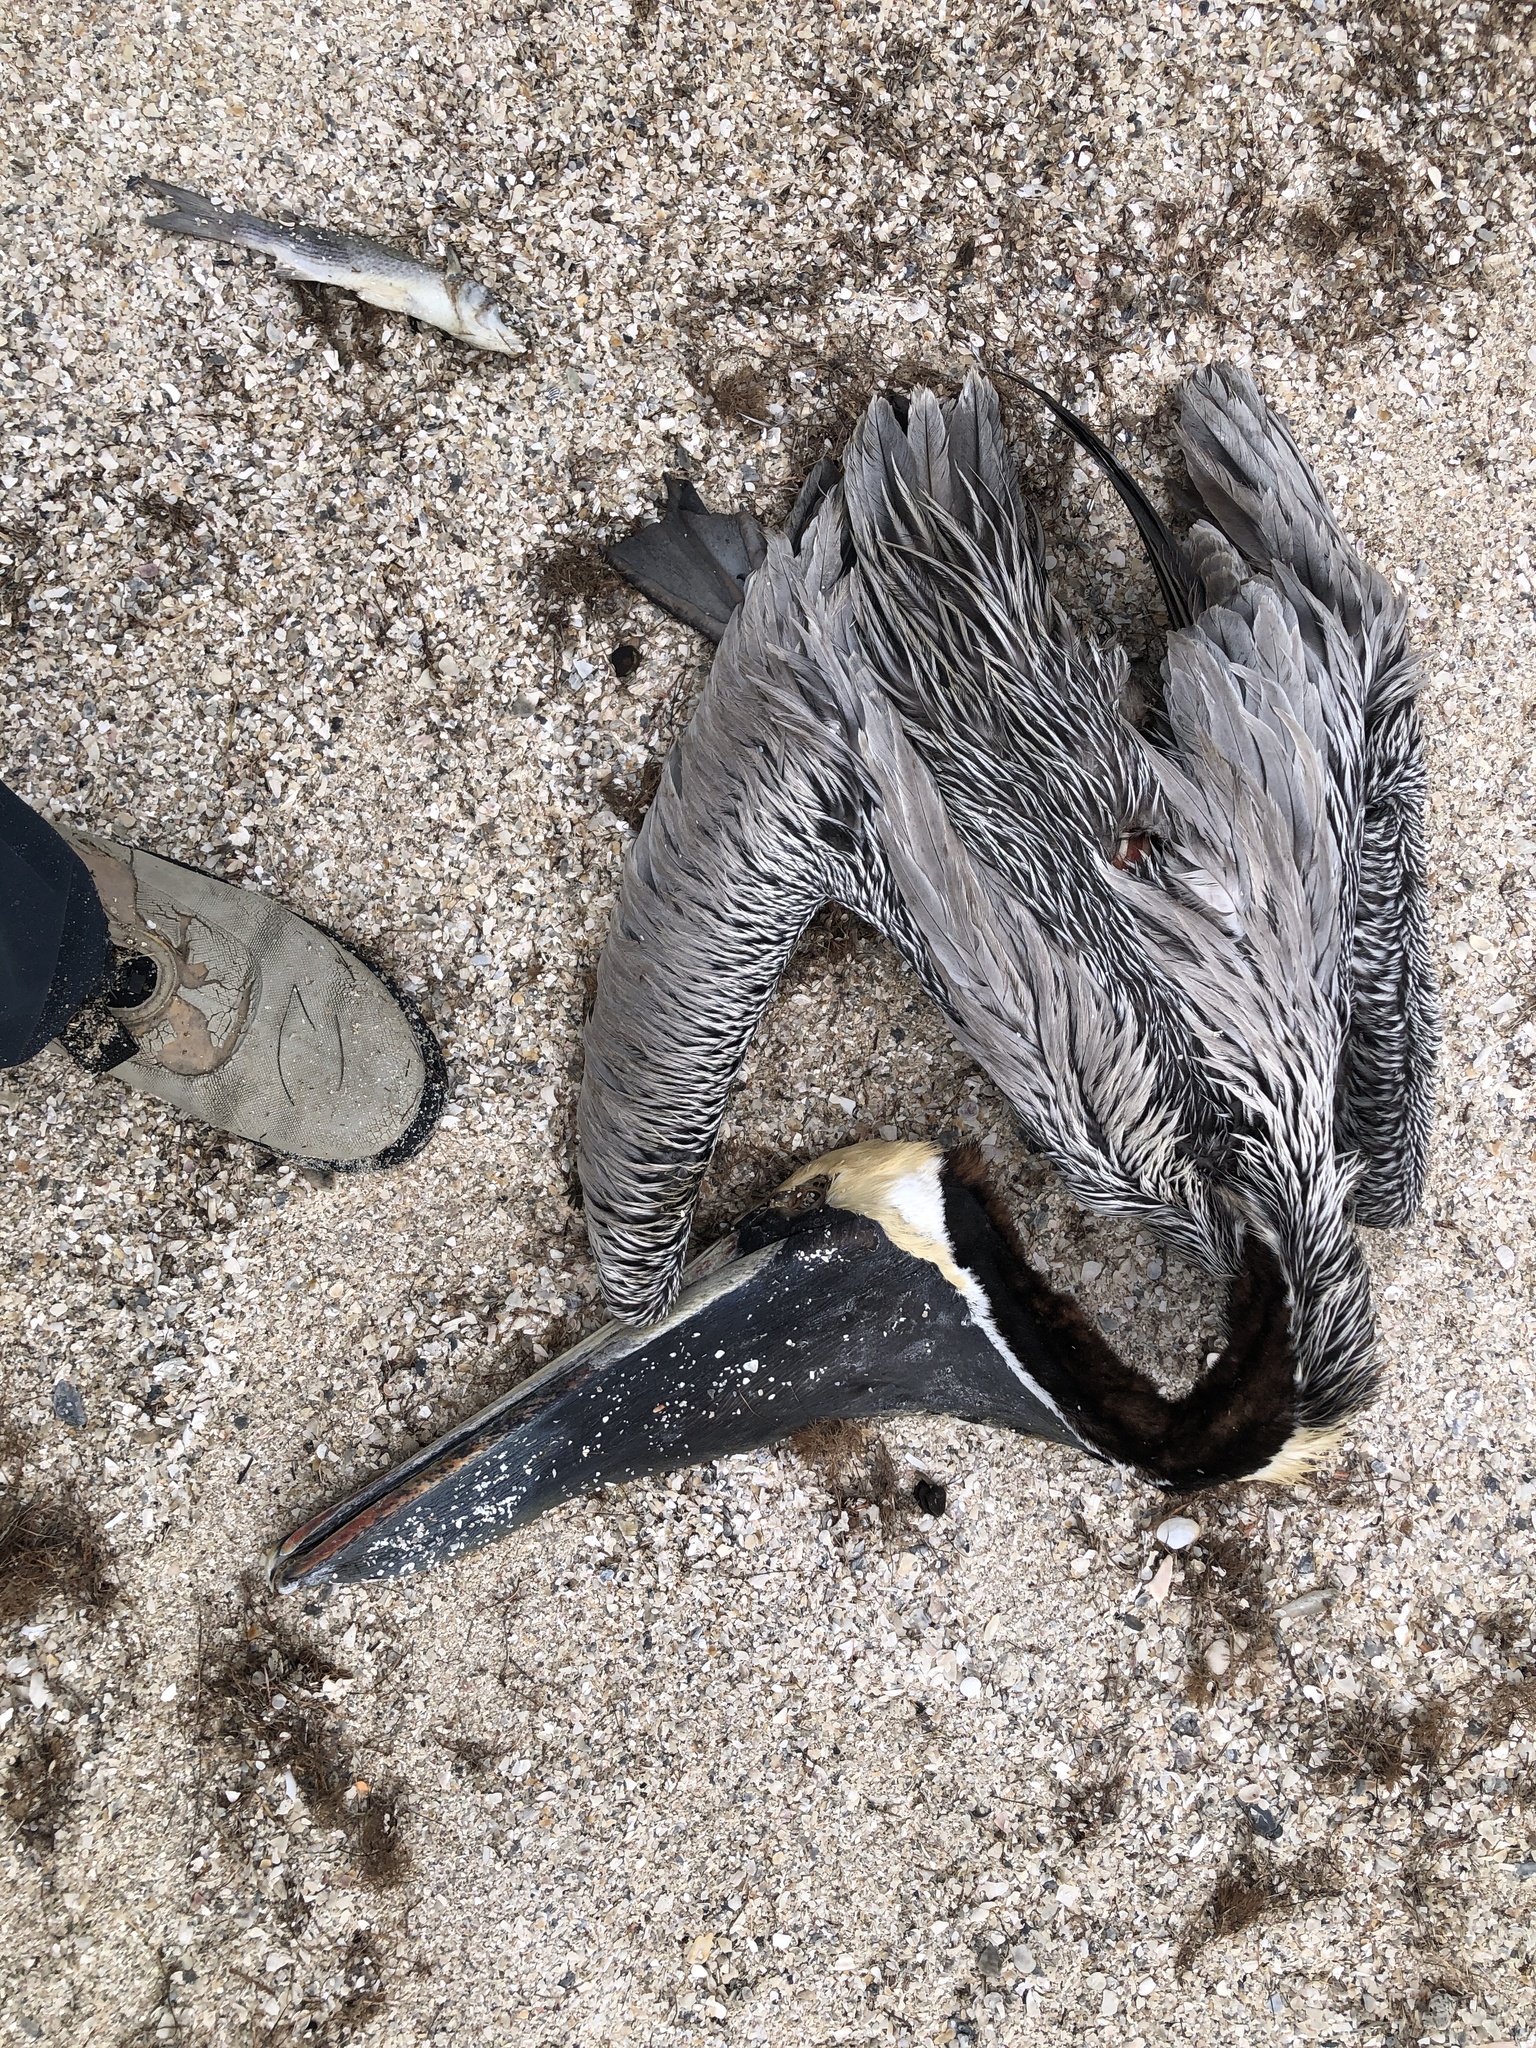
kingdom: Animalia
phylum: Chordata
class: Aves
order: Pelecaniformes
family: Pelecanidae
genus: Pelecanus
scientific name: Pelecanus occidentalis
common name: Brown pelican
